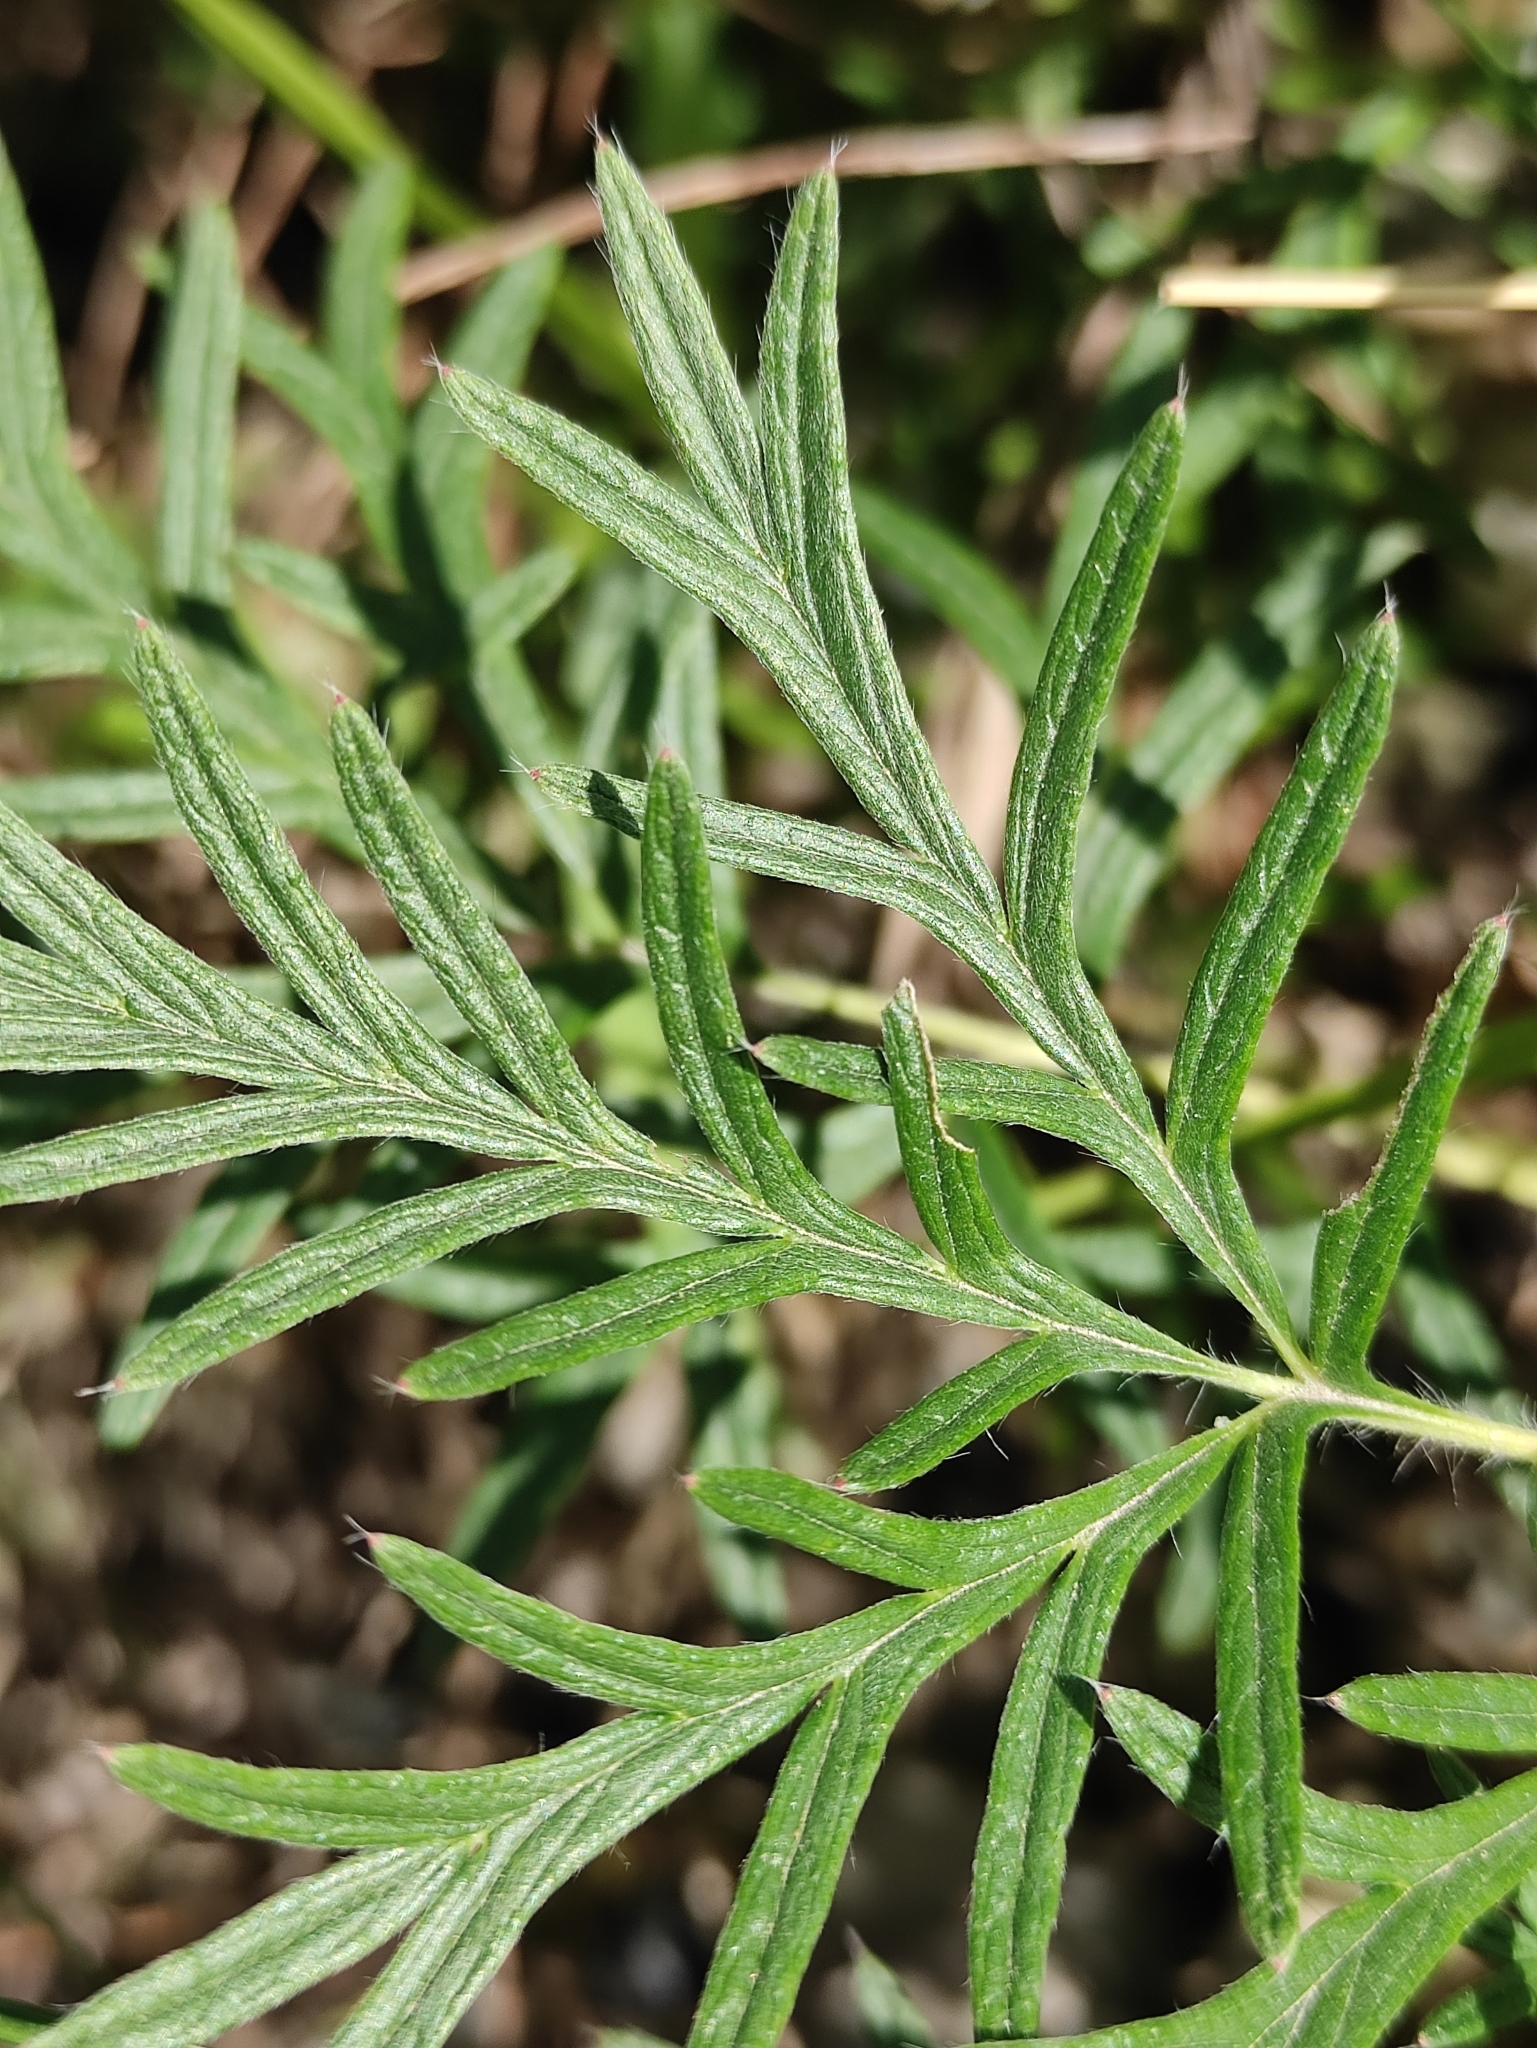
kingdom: Plantae
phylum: Tracheophyta
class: Magnoliopsida
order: Rosales
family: Rosaceae
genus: Potentilla
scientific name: Potentilla tergemina
